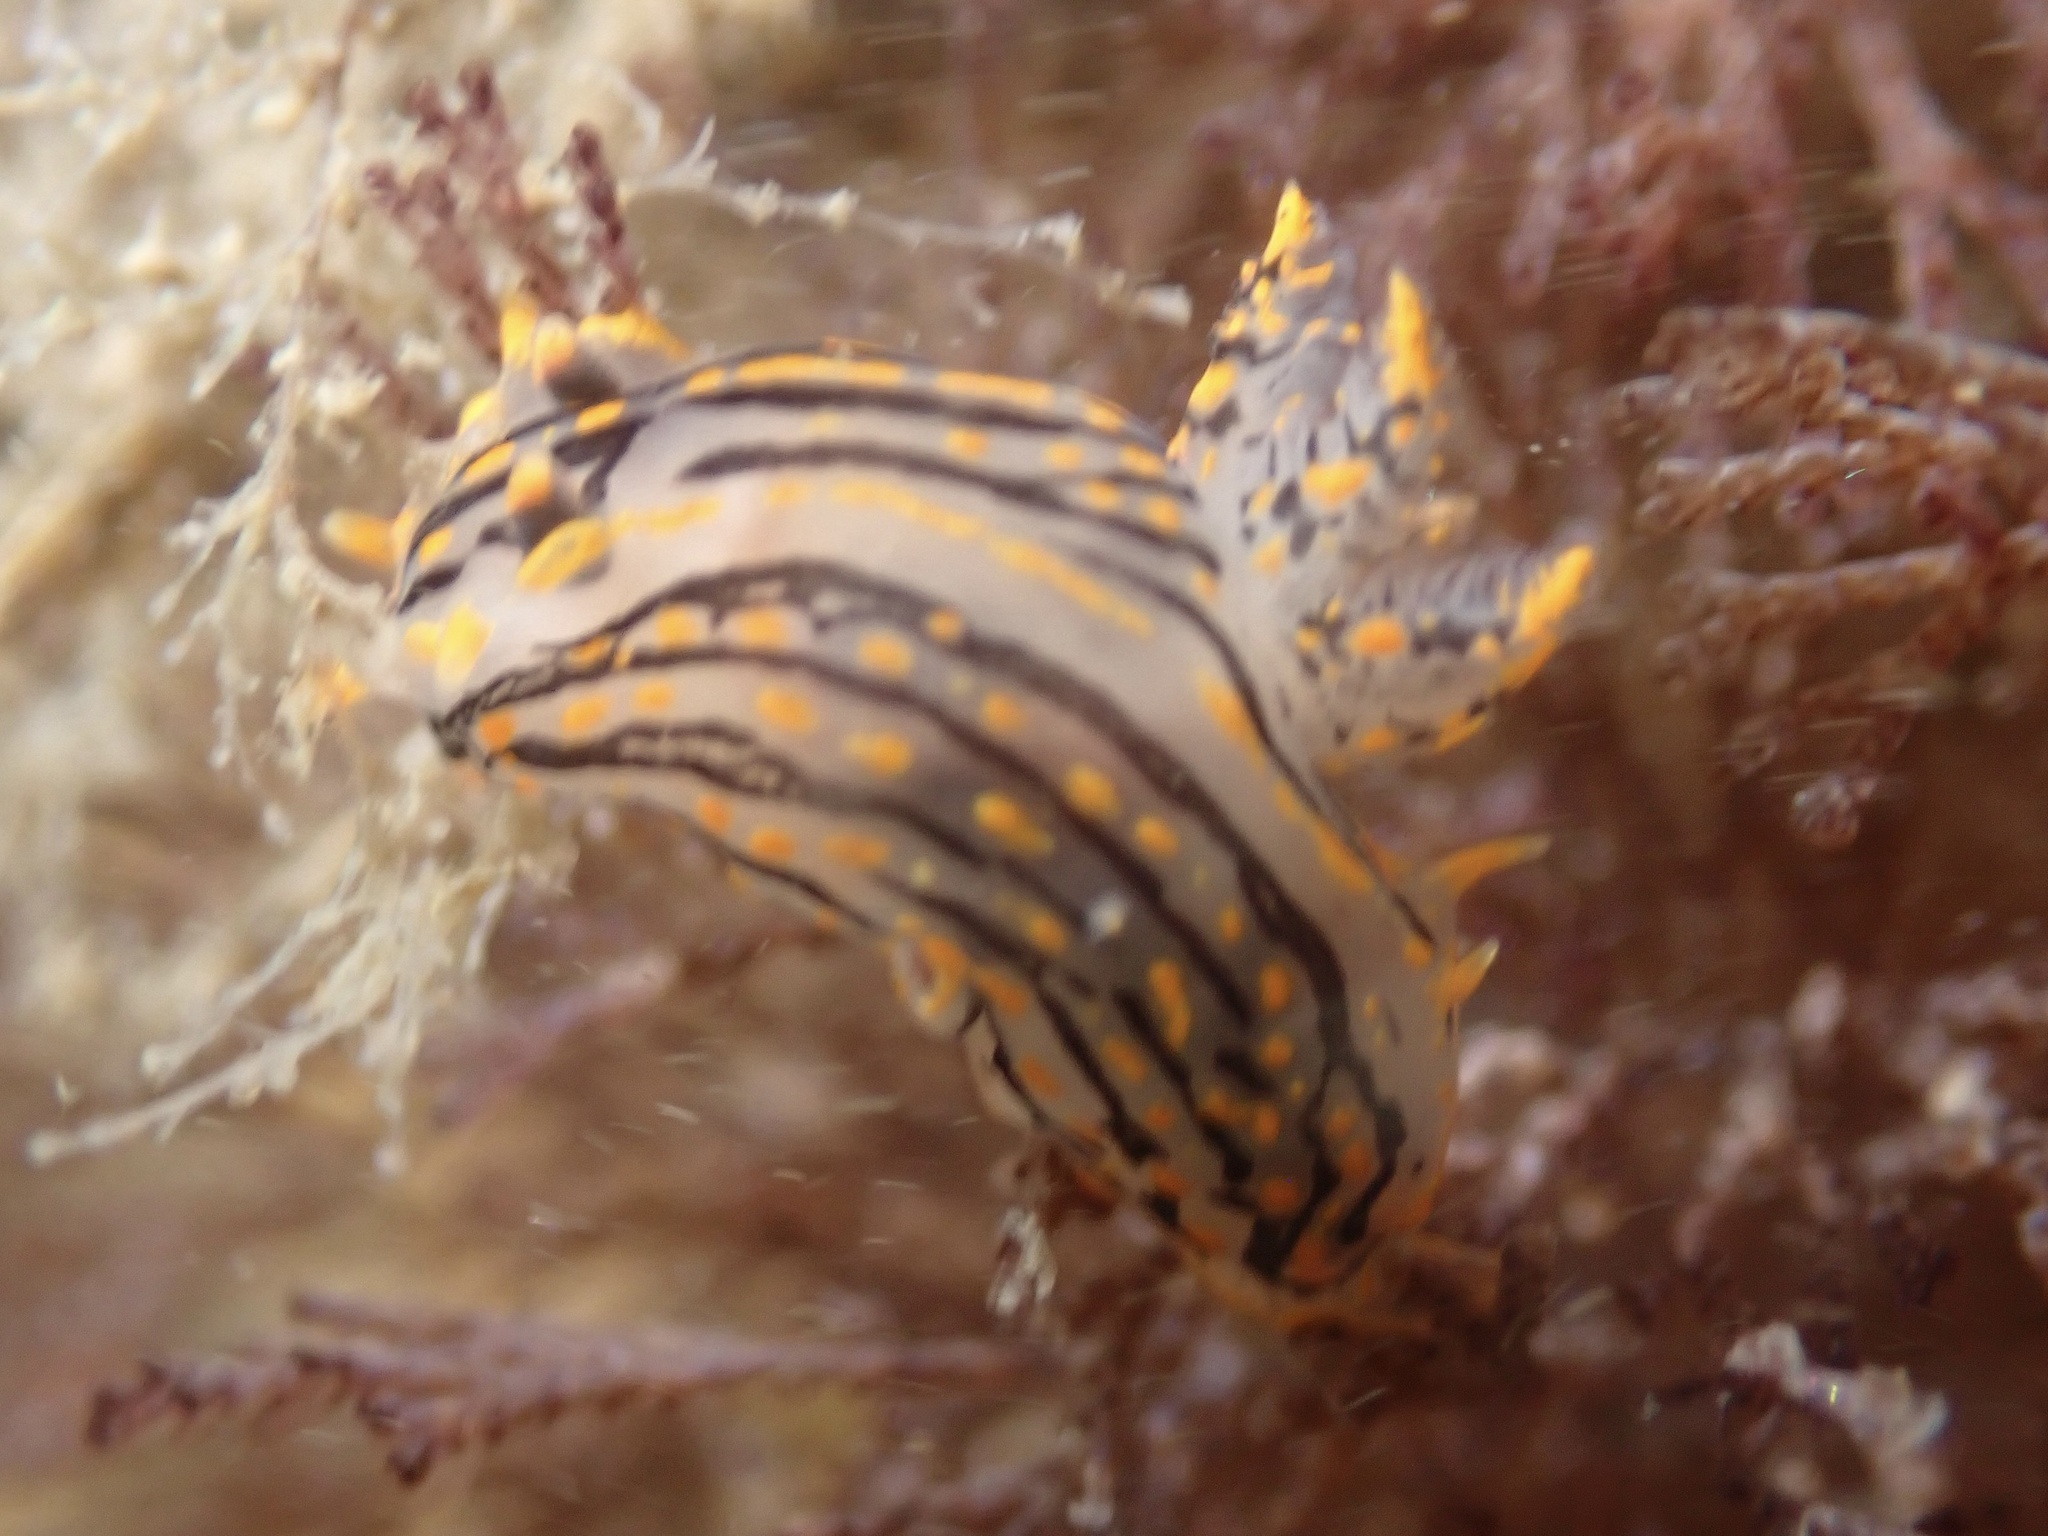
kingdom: Animalia
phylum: Mollusca
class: Gastropoda
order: Nudibranchia
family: Polyceridae
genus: Polycera
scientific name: Polycera atra
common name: Orange-spike polycera
